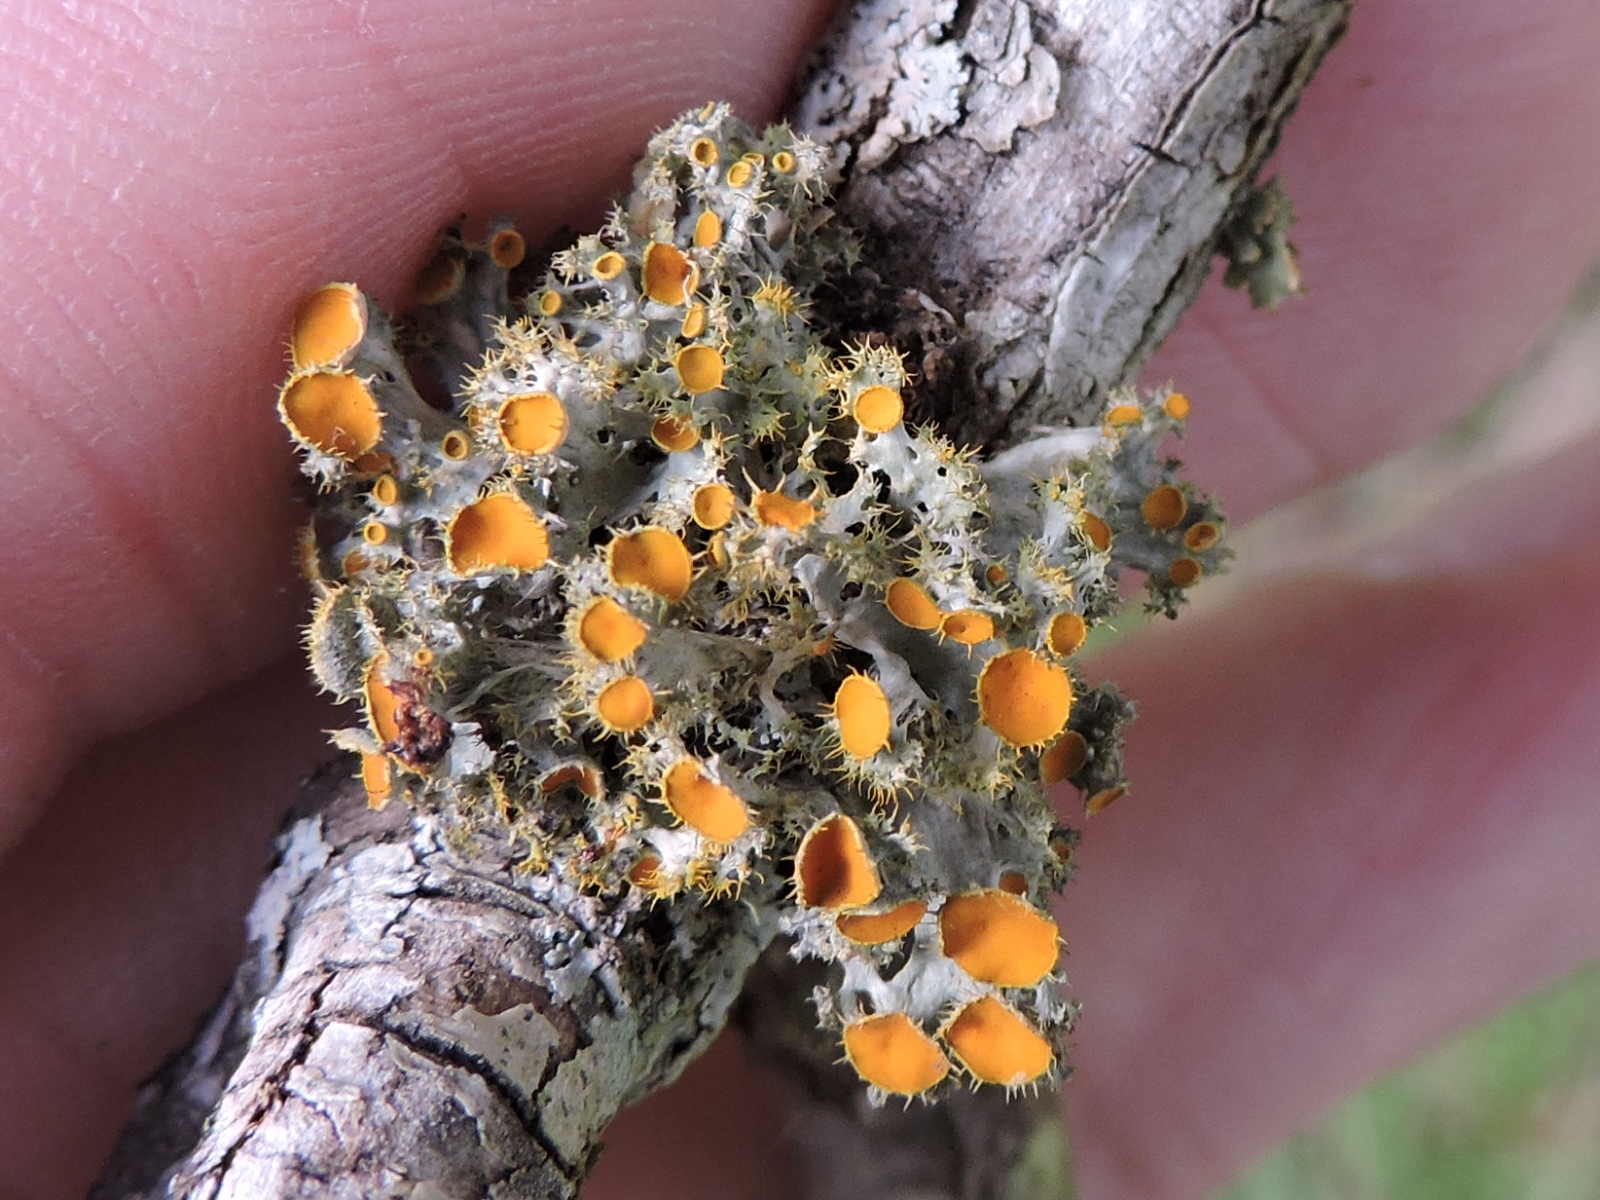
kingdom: Fungi
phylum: Ascomycota
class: Lecanoromycetes
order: Teloschistales
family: Teloschistaceae
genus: Niorma
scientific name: Niorma chrysophthalma
